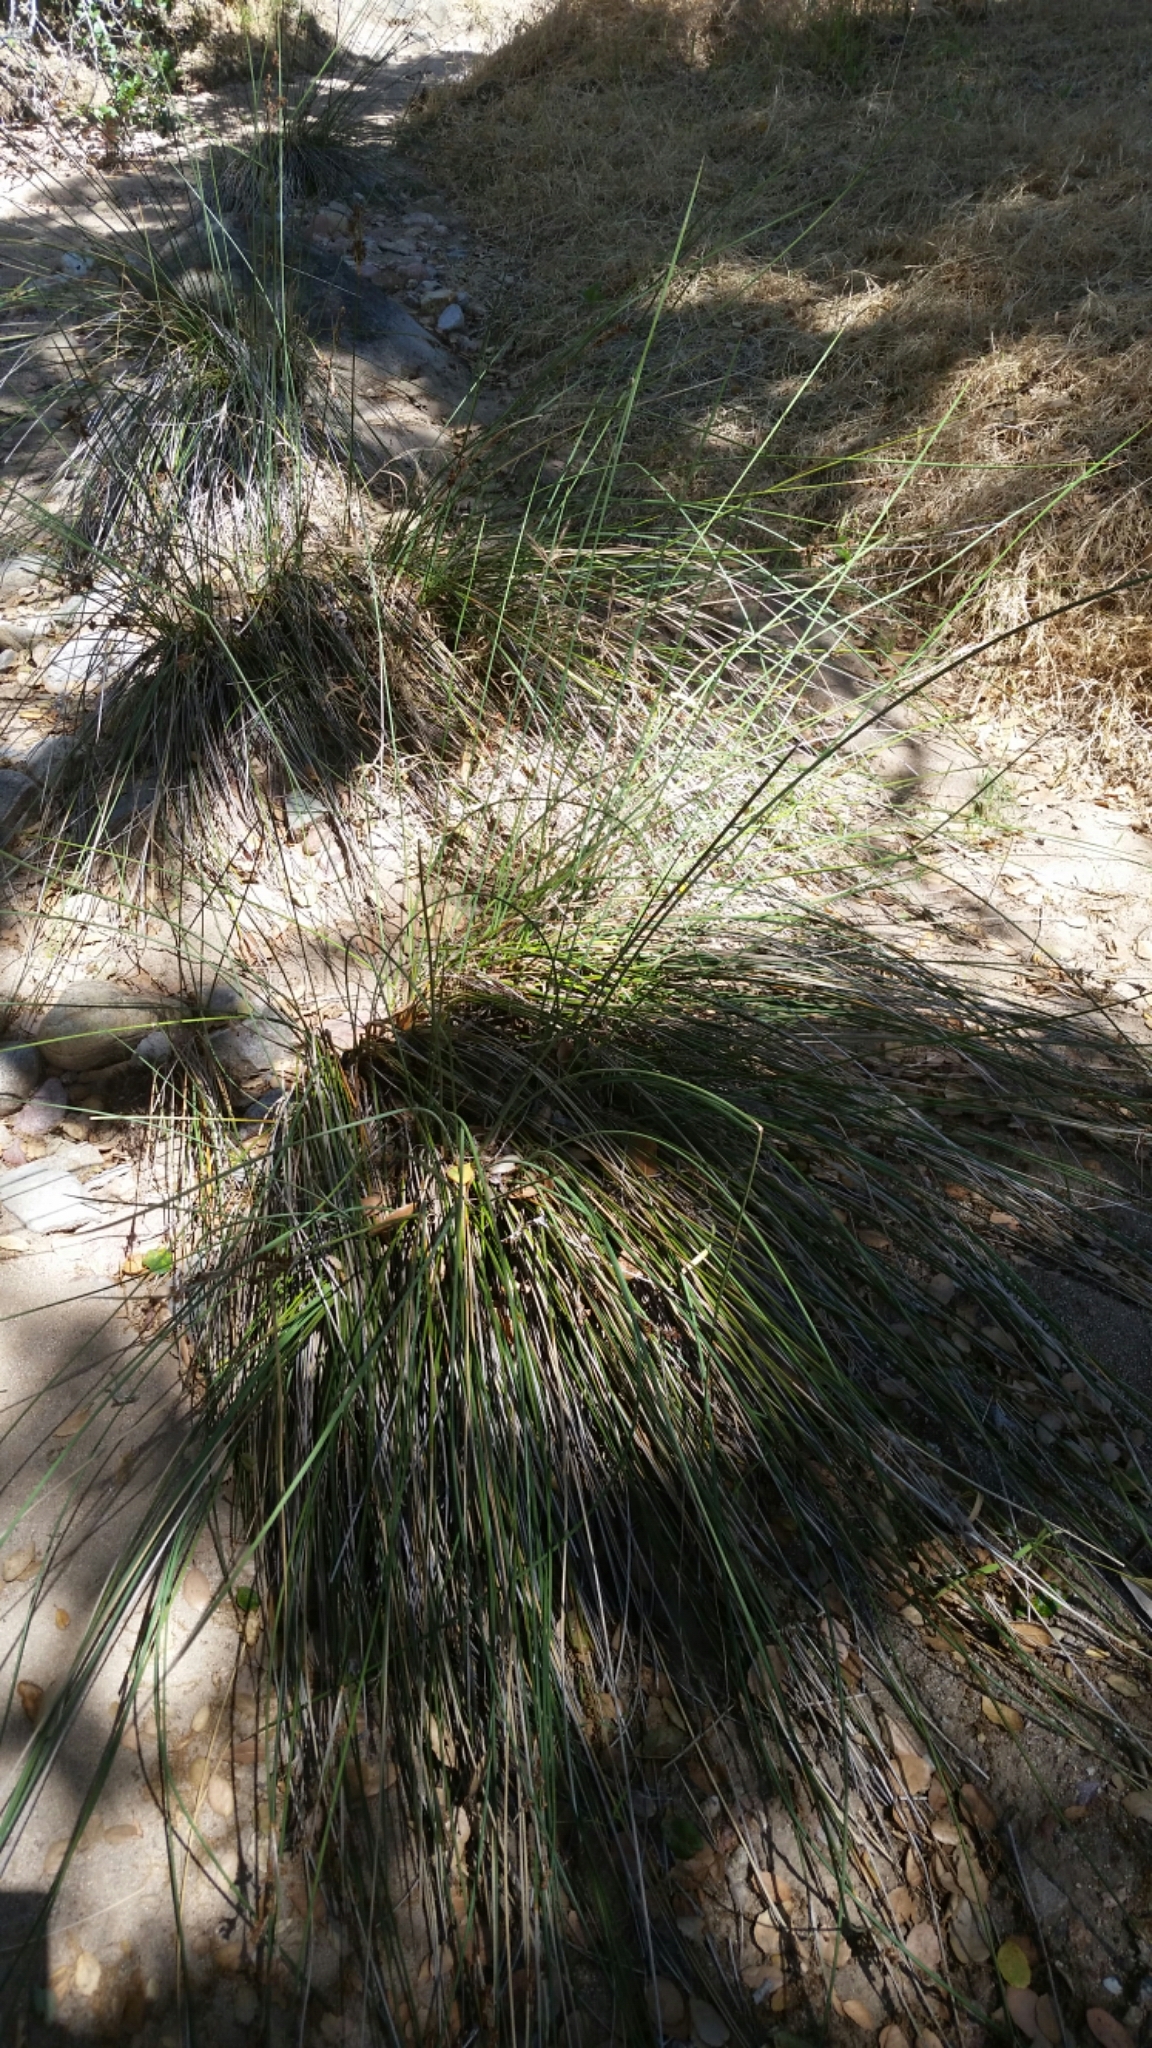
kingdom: Plantae
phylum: Tracheophyta
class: Liliopsida
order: Poales
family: Juncaceae
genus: Juncus
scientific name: Juncus acutus
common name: Sharp rush
